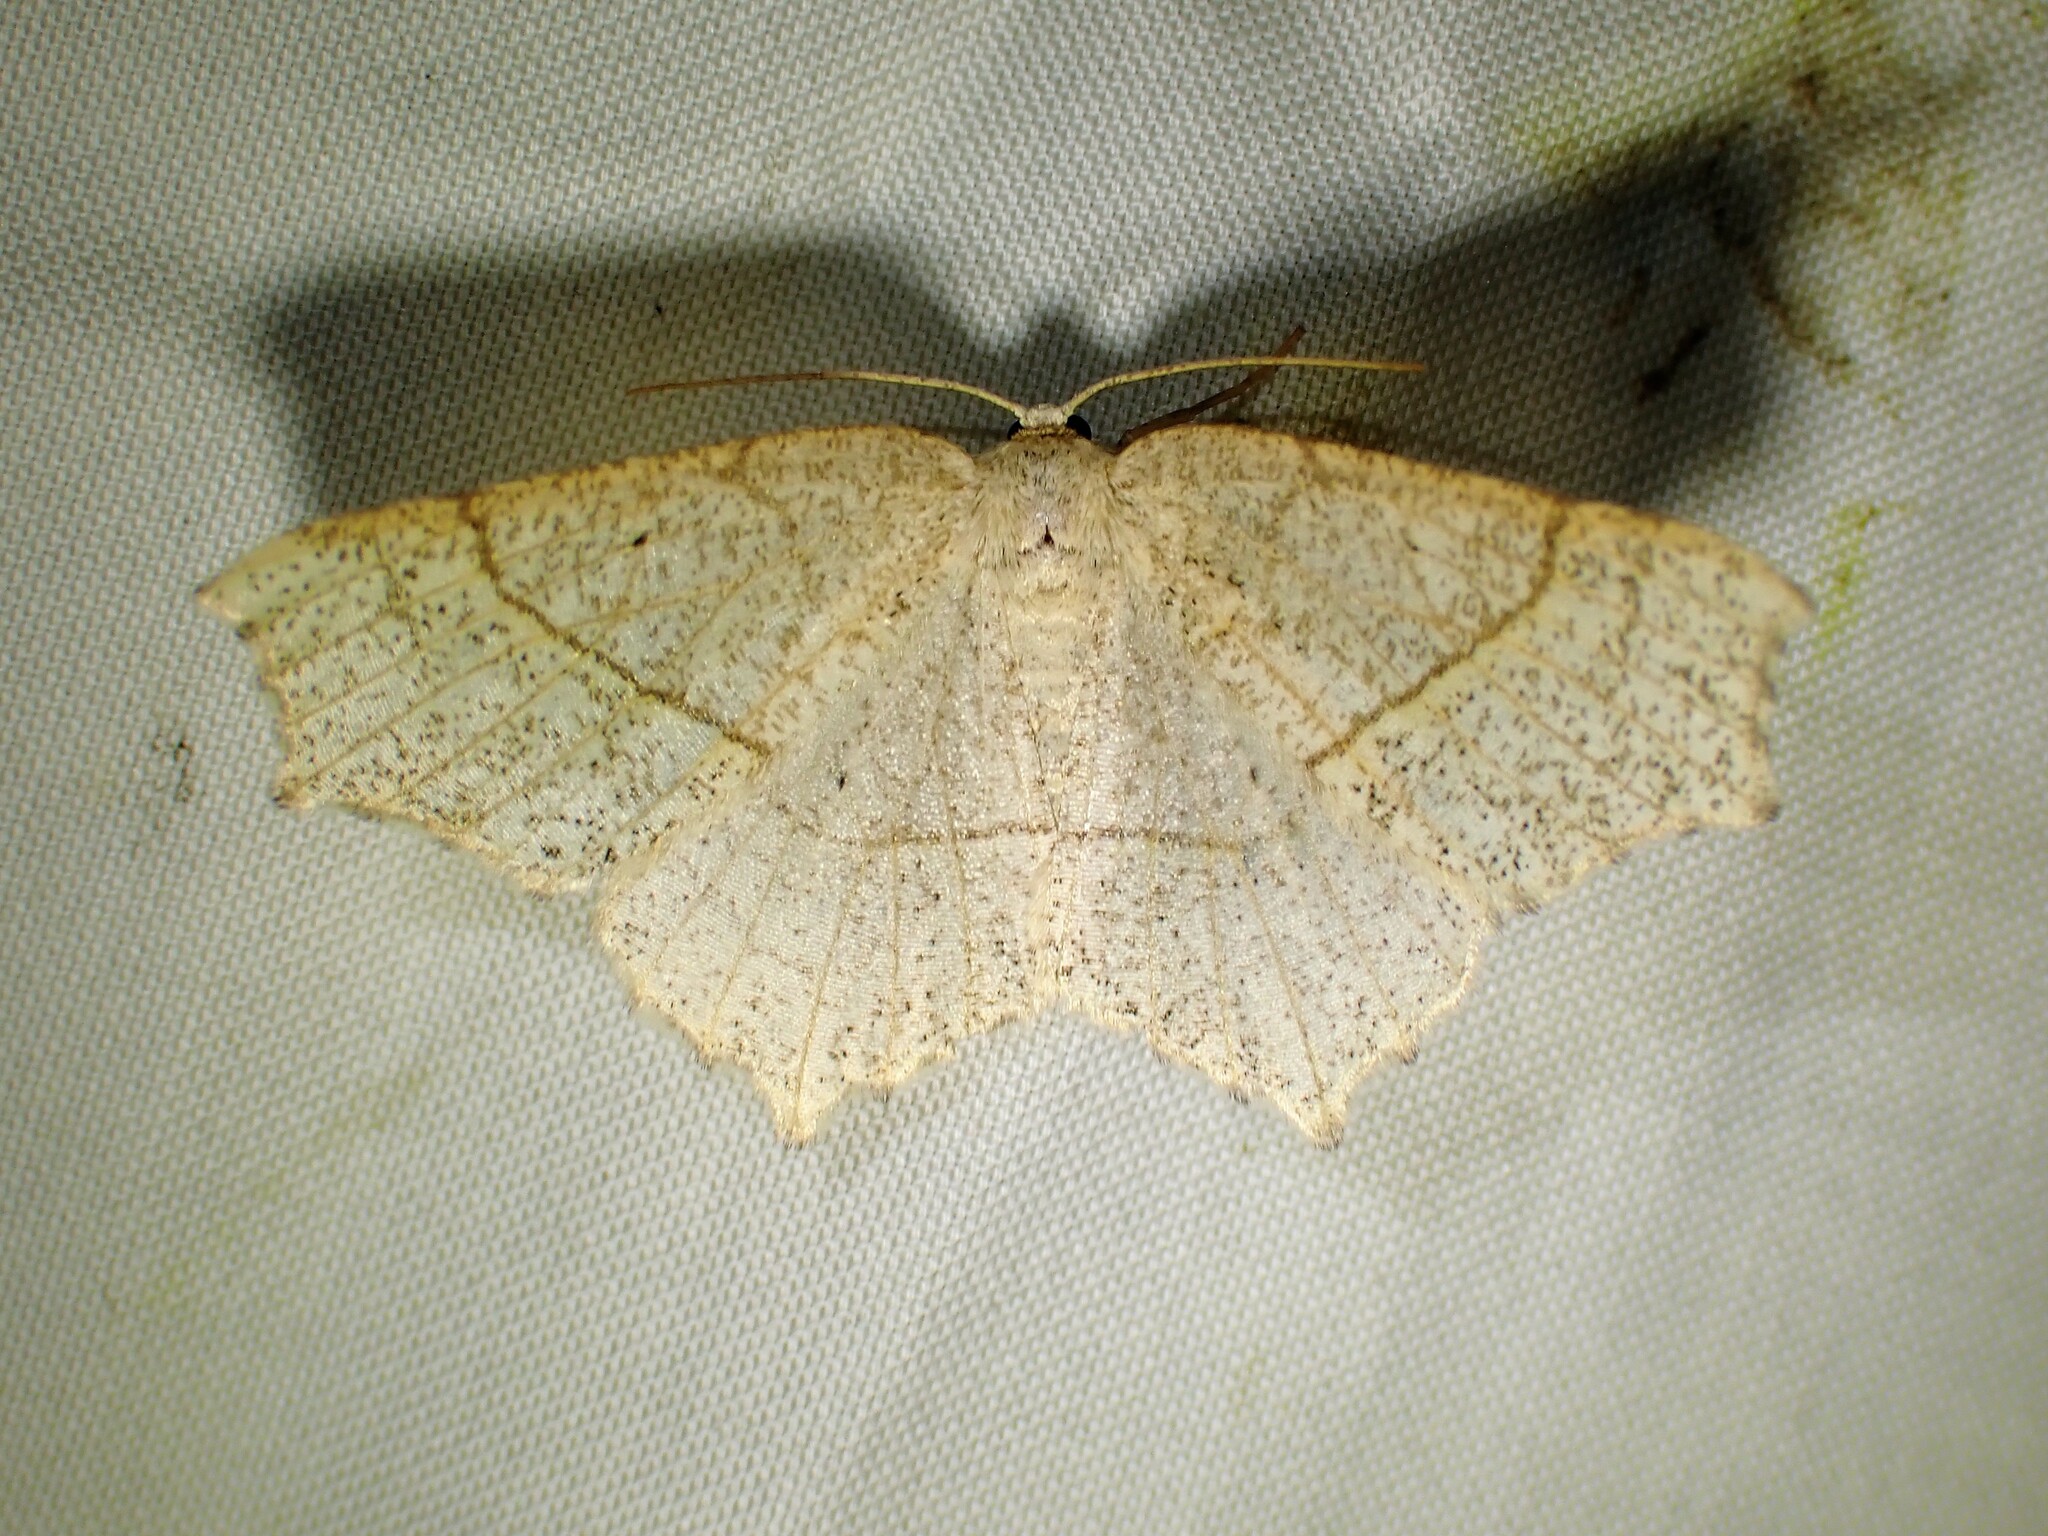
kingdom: Animalia
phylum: Arthropoda
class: Insecta
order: Lepidoptera
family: Geometridae
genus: Besma
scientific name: Besma quercivoraria
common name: Oak besma
